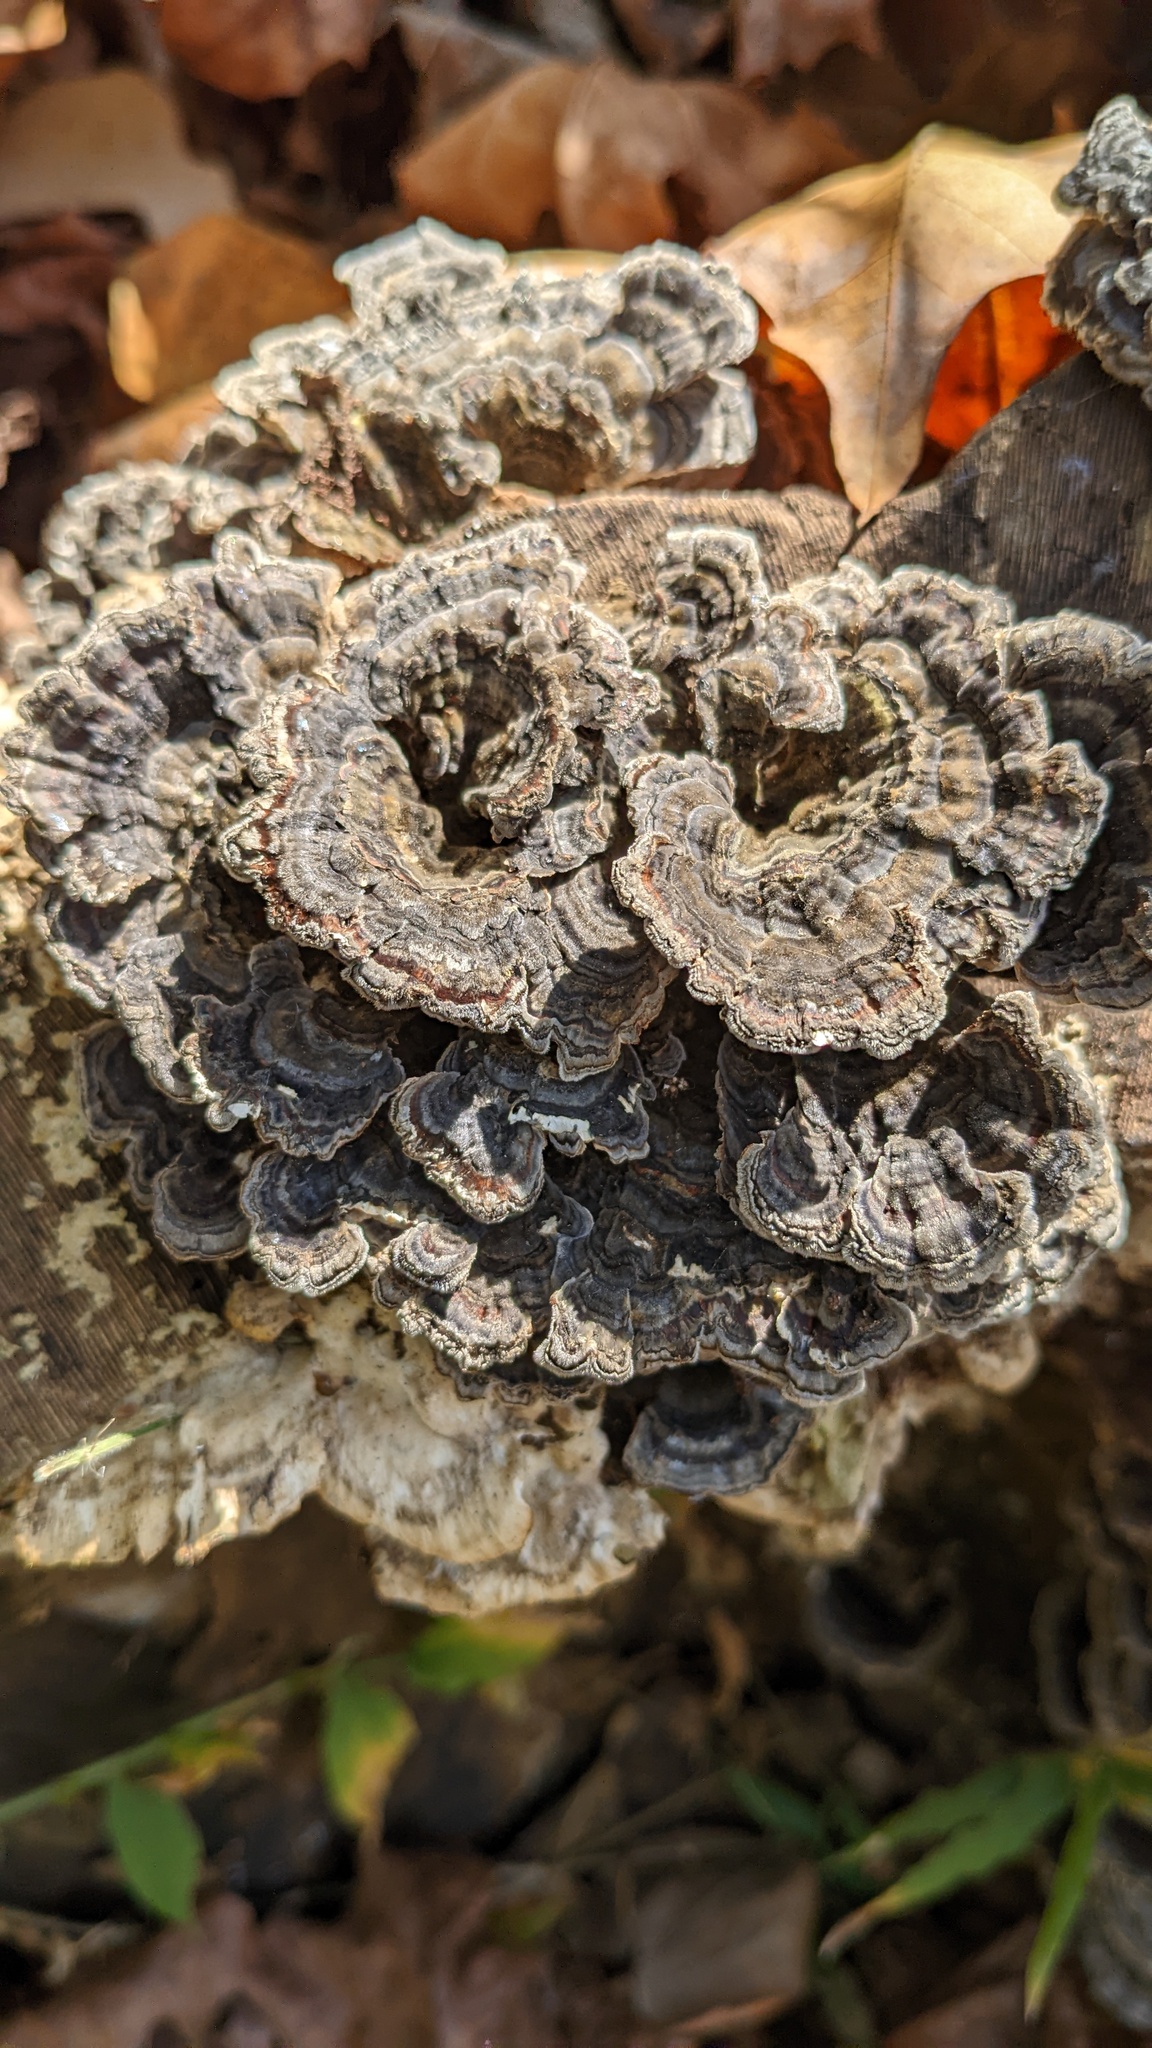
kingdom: Fungi
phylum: Basidiomycota
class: Agaricomycetes
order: Polyporales
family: Polyporaceae
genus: Trametes
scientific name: Trametes versicolor
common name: Turkeytail
